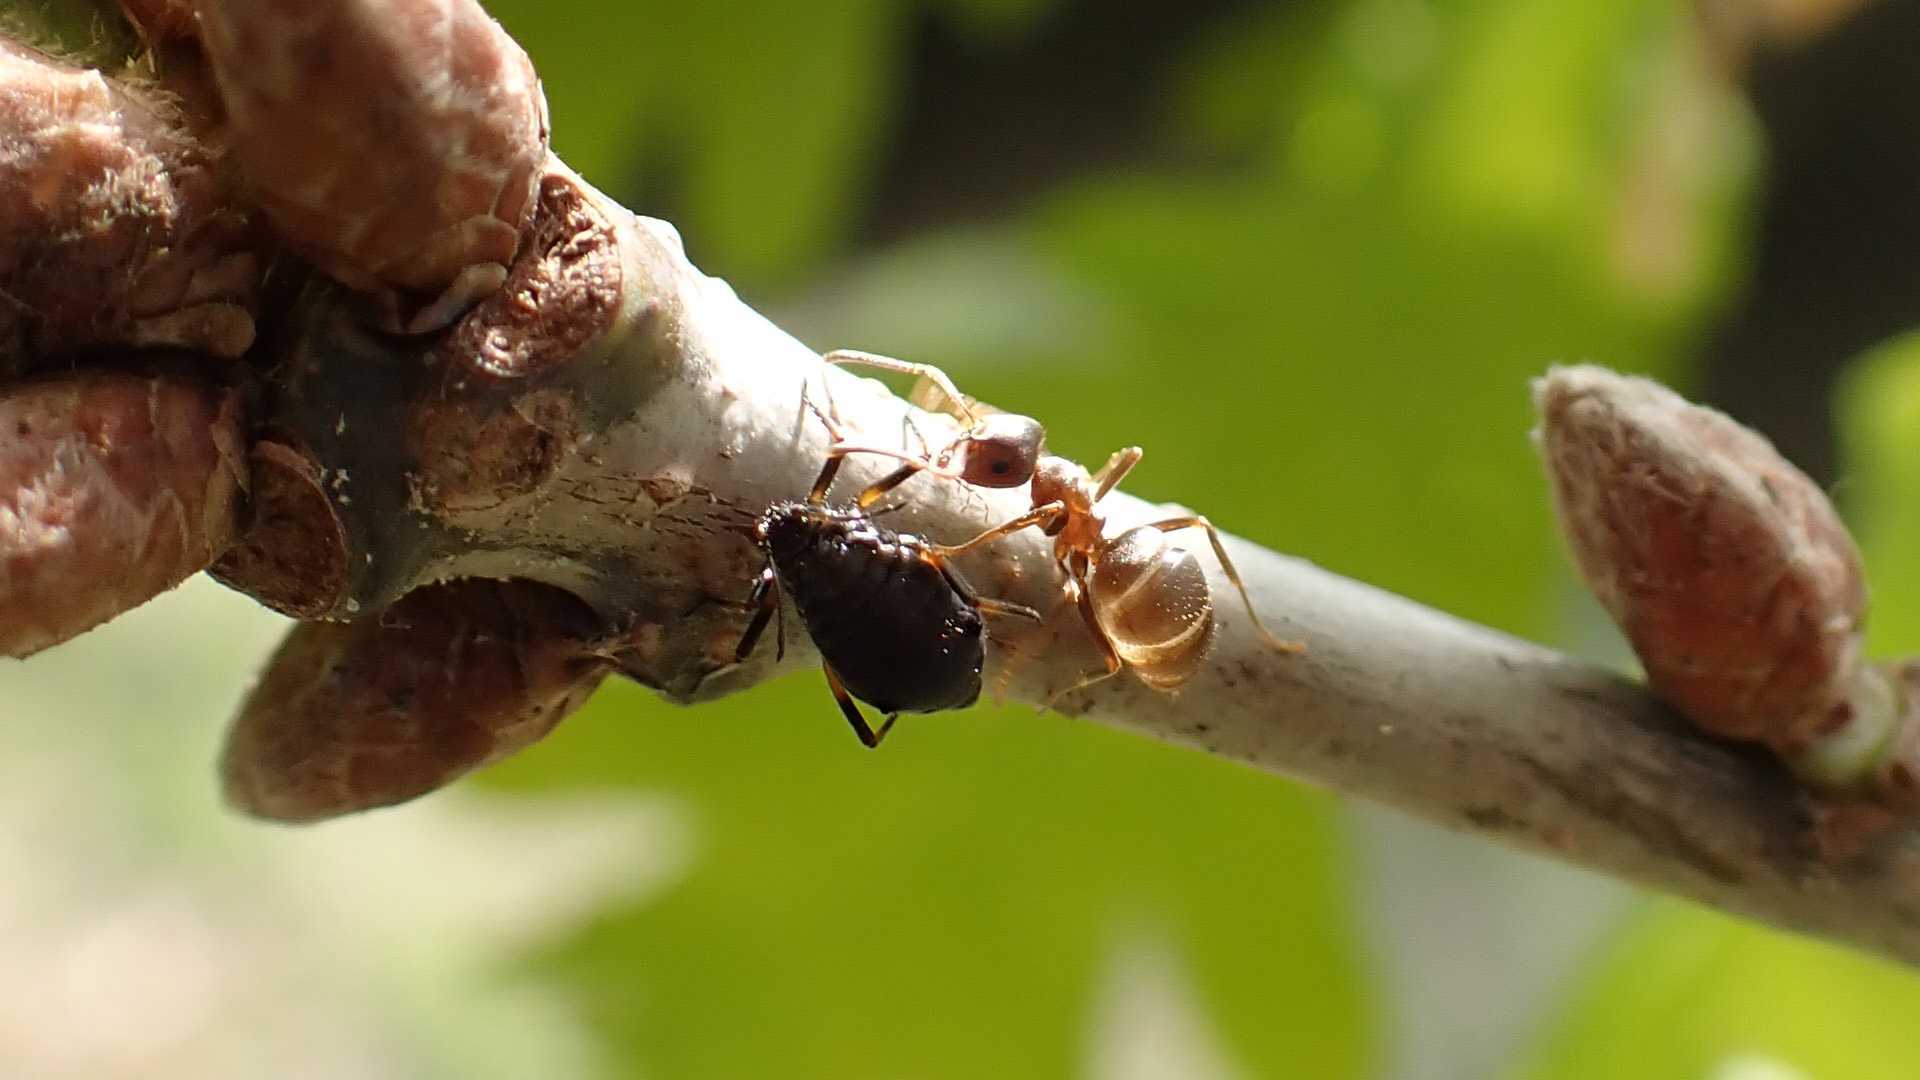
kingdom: Animalia
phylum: Arthropoda
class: Insecta
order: Hymenoptera
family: Formicidae
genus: Lasius
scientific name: Lasius
